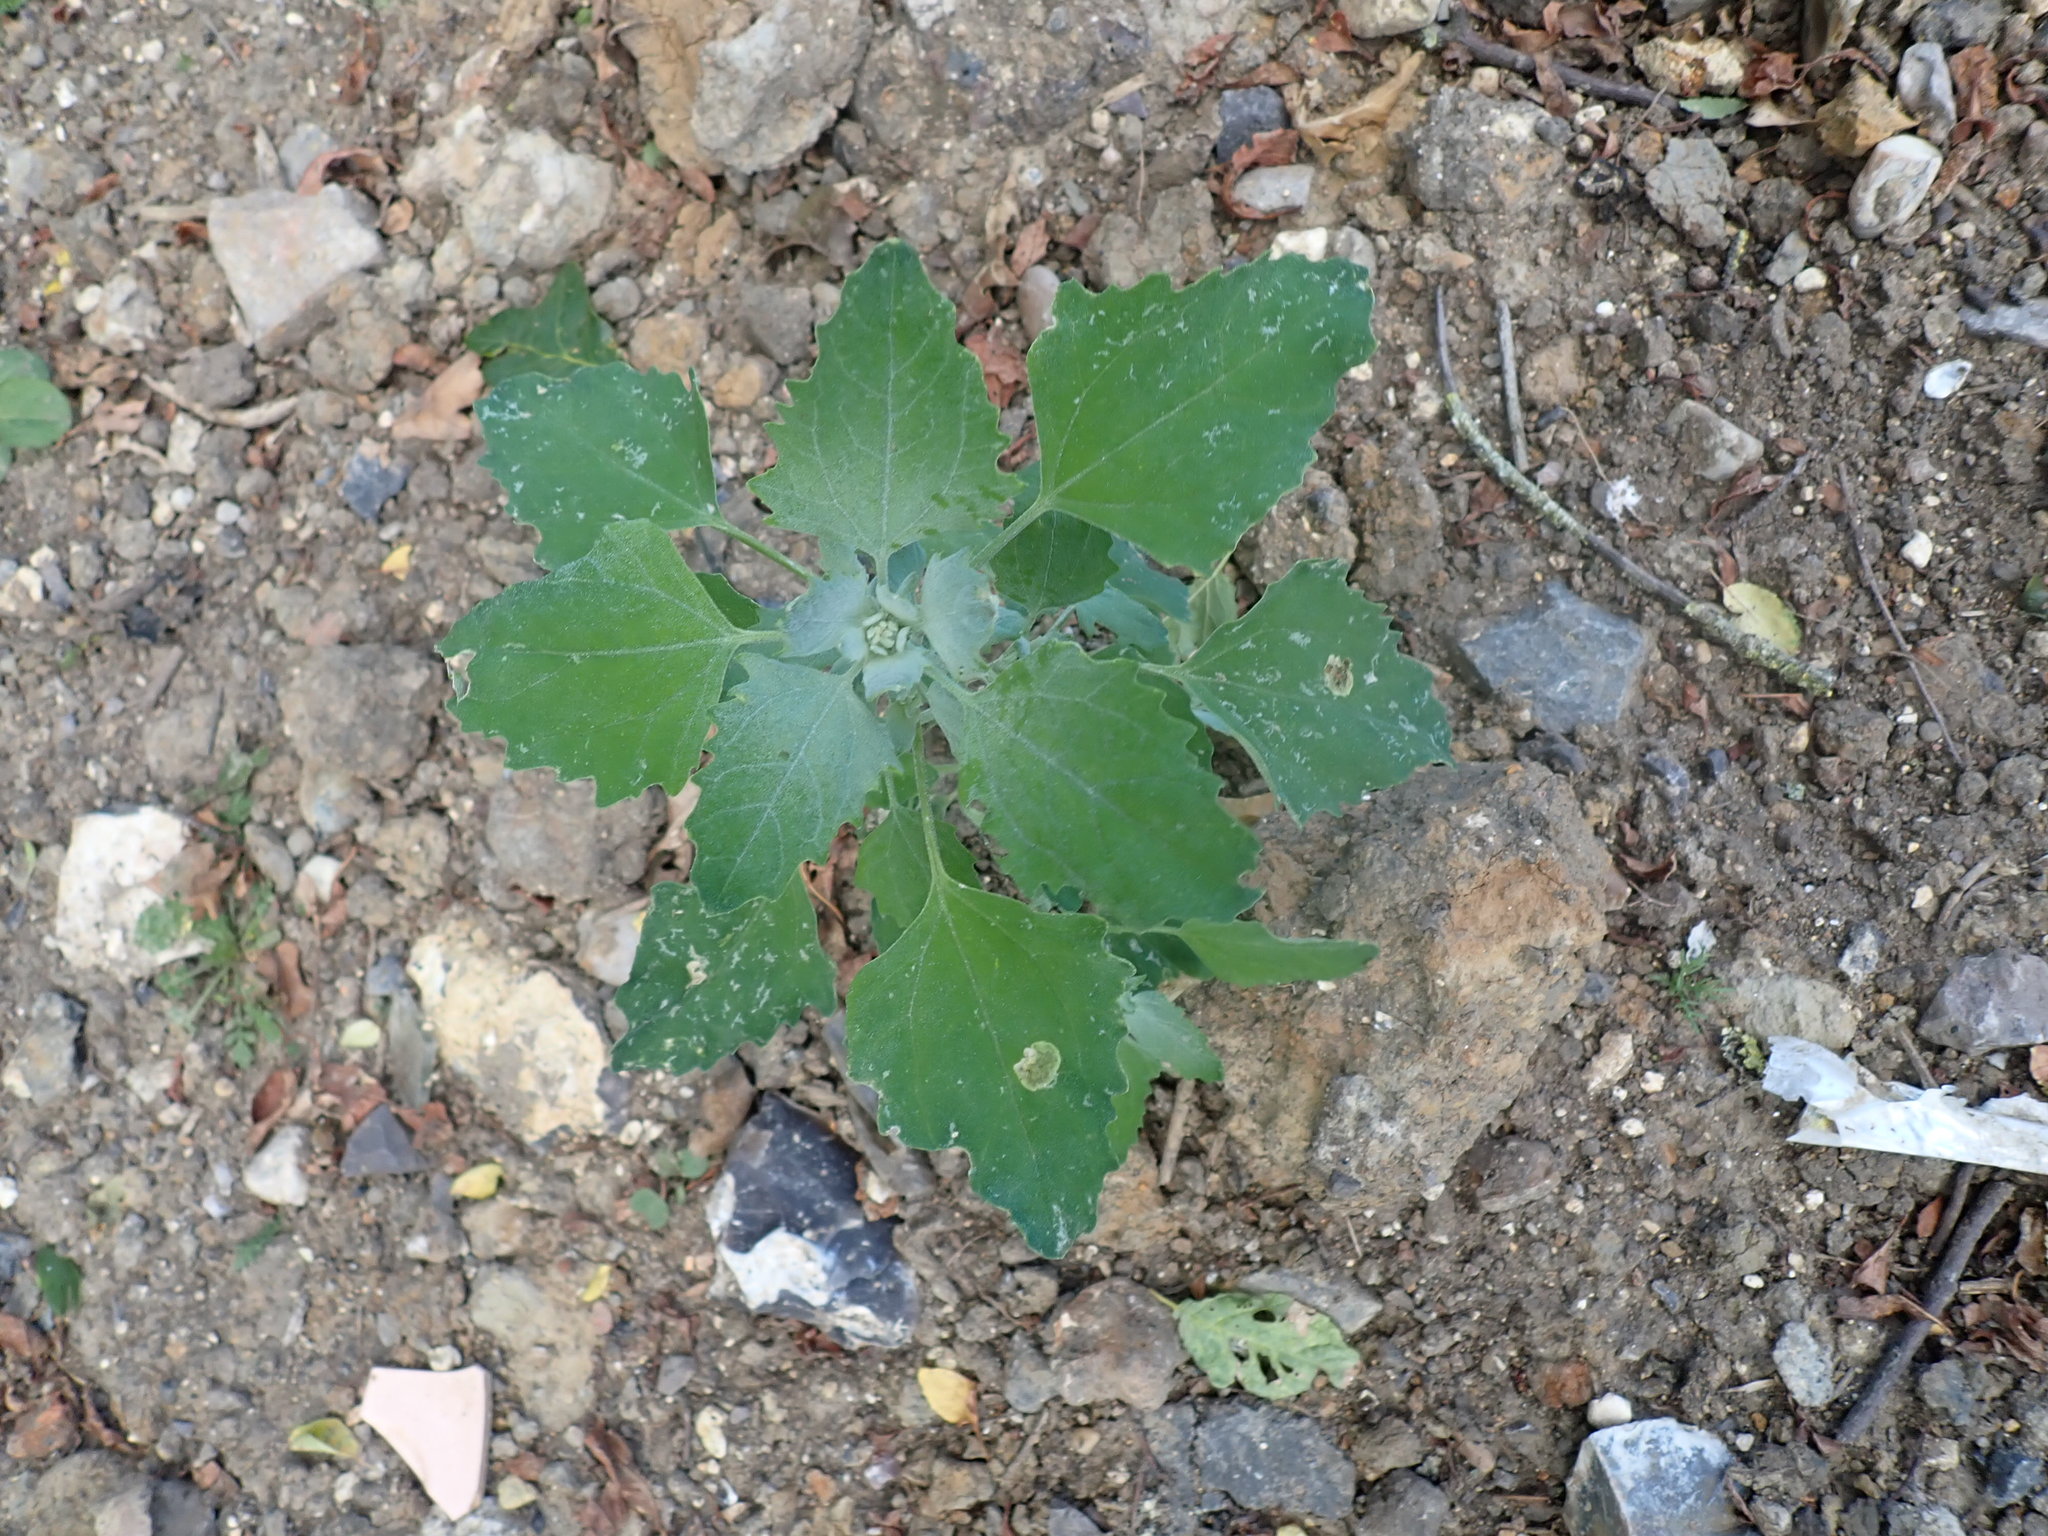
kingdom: Plantae
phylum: Tracheophyta
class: Magnoliopsida
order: Caryophyllales
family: Amaranthaceae
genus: Chenopodium
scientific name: Chenopodium album
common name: Fat-hen
